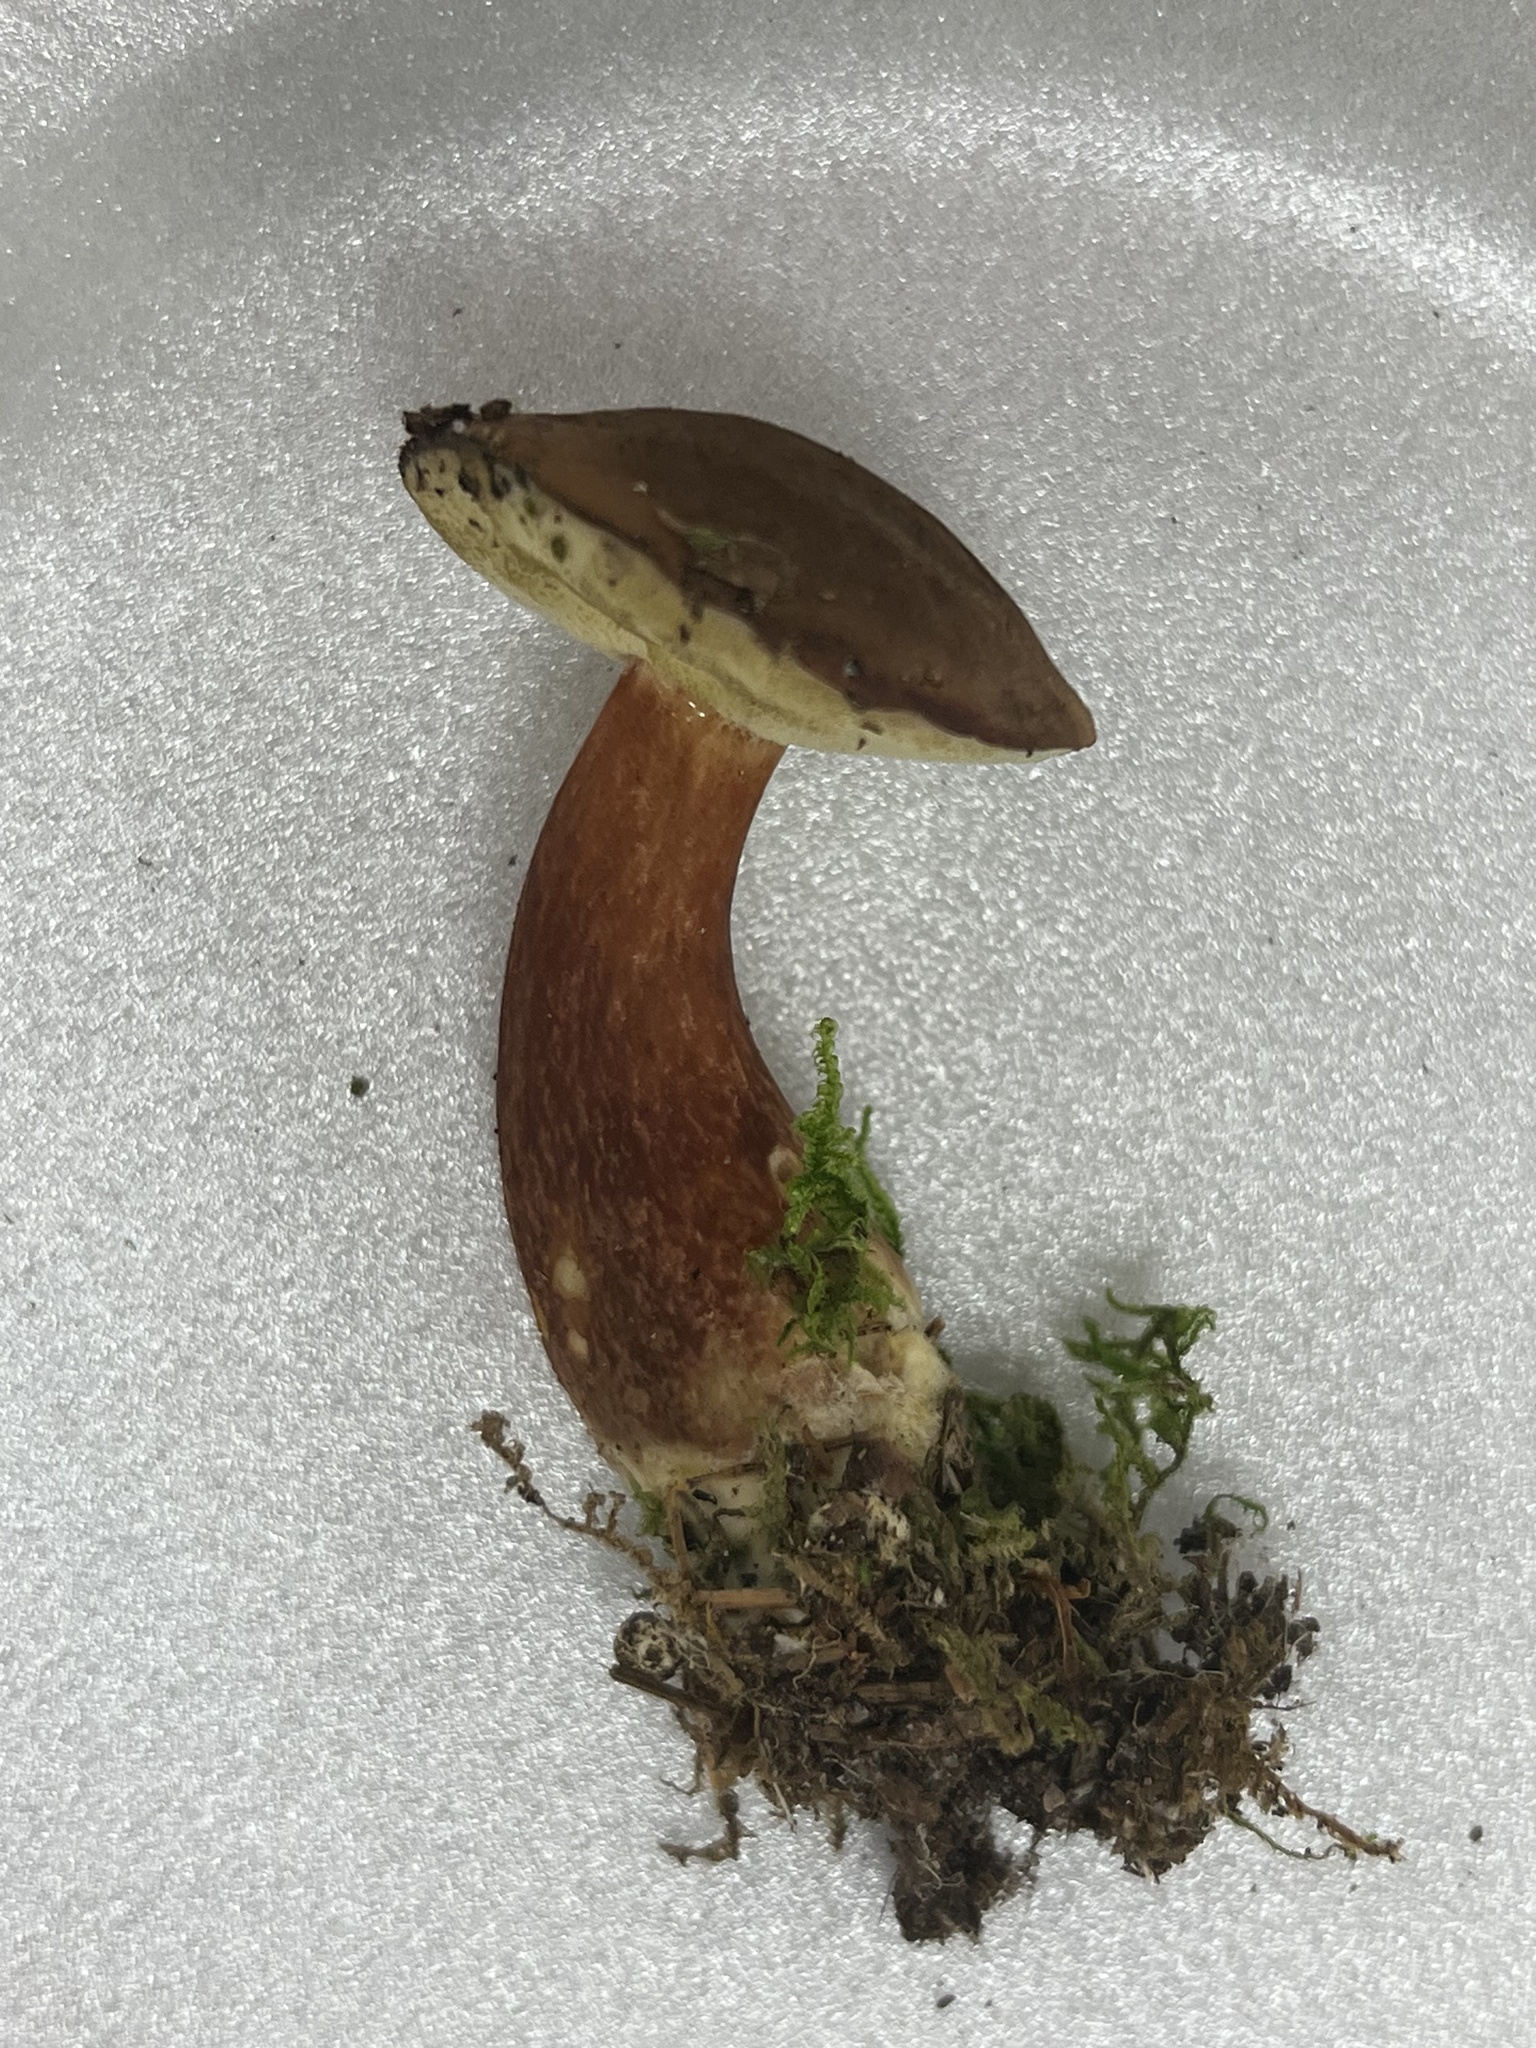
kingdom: Fungi
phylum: Basidiomycota
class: Agaricomycetes
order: Boletales
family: Boletaceae
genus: Imleria
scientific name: Imleria badia
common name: Bay bolete
